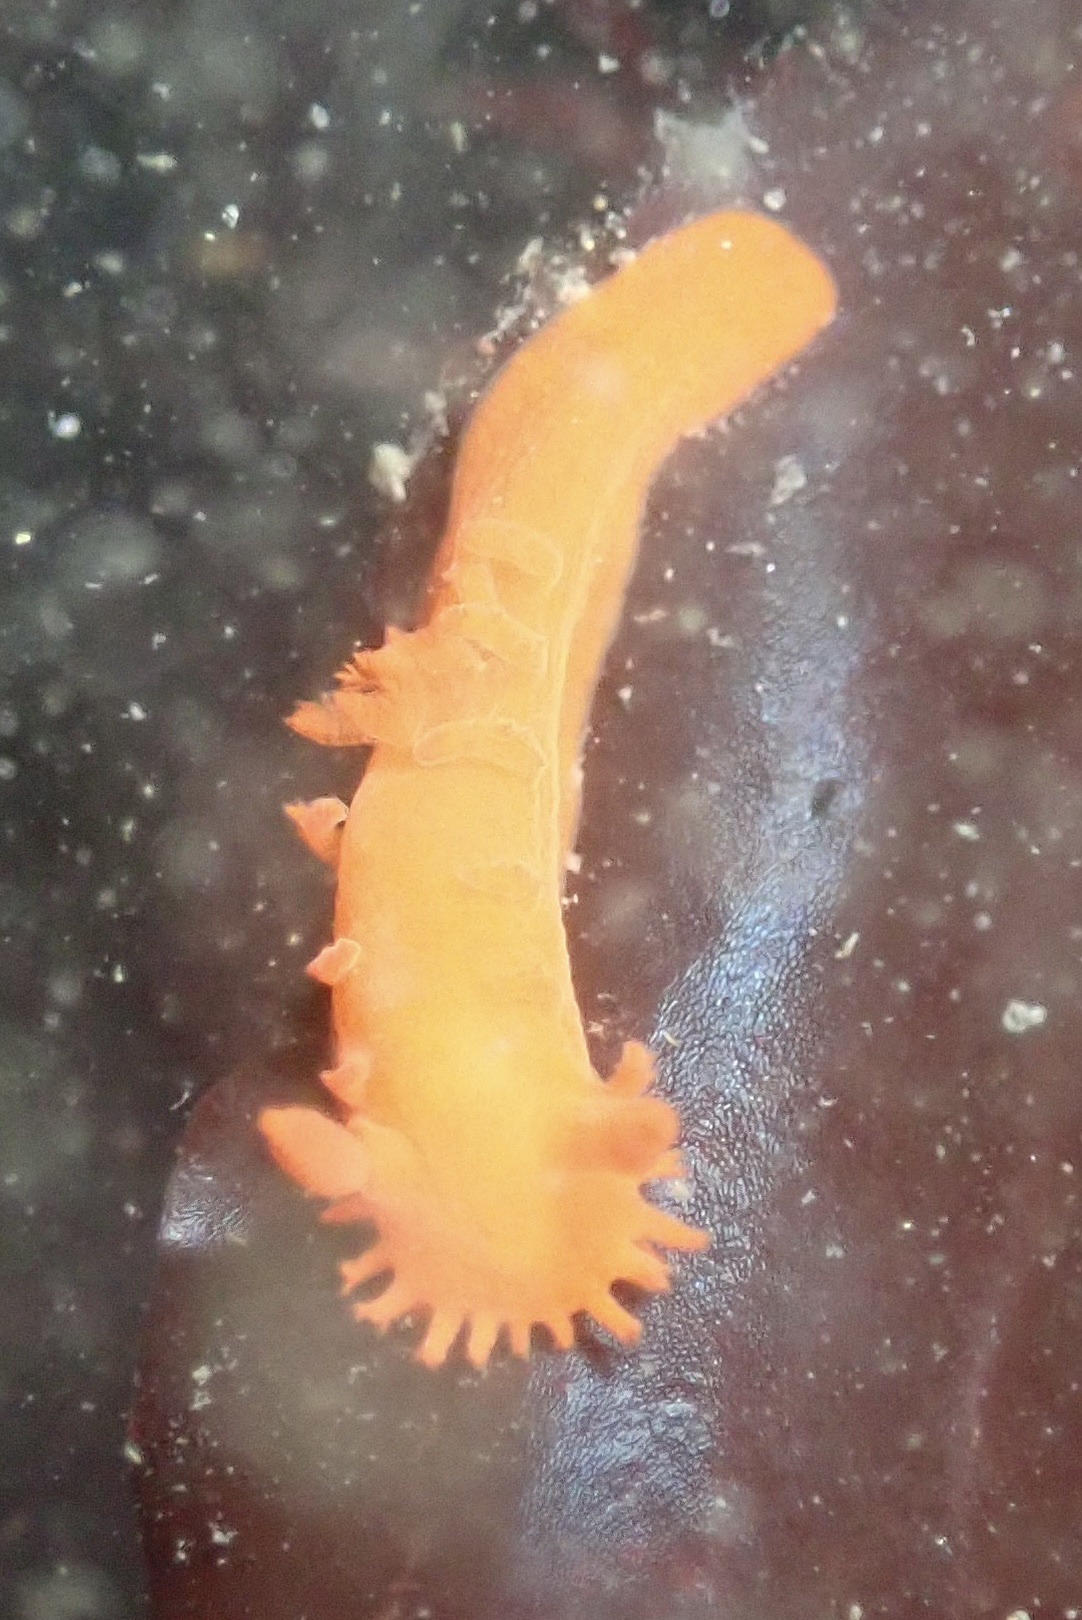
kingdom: Animalia
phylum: Mollusca
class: Gastropoda
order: Nudibranchia
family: Polyceridae
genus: Triopha
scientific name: Triopha maculata
